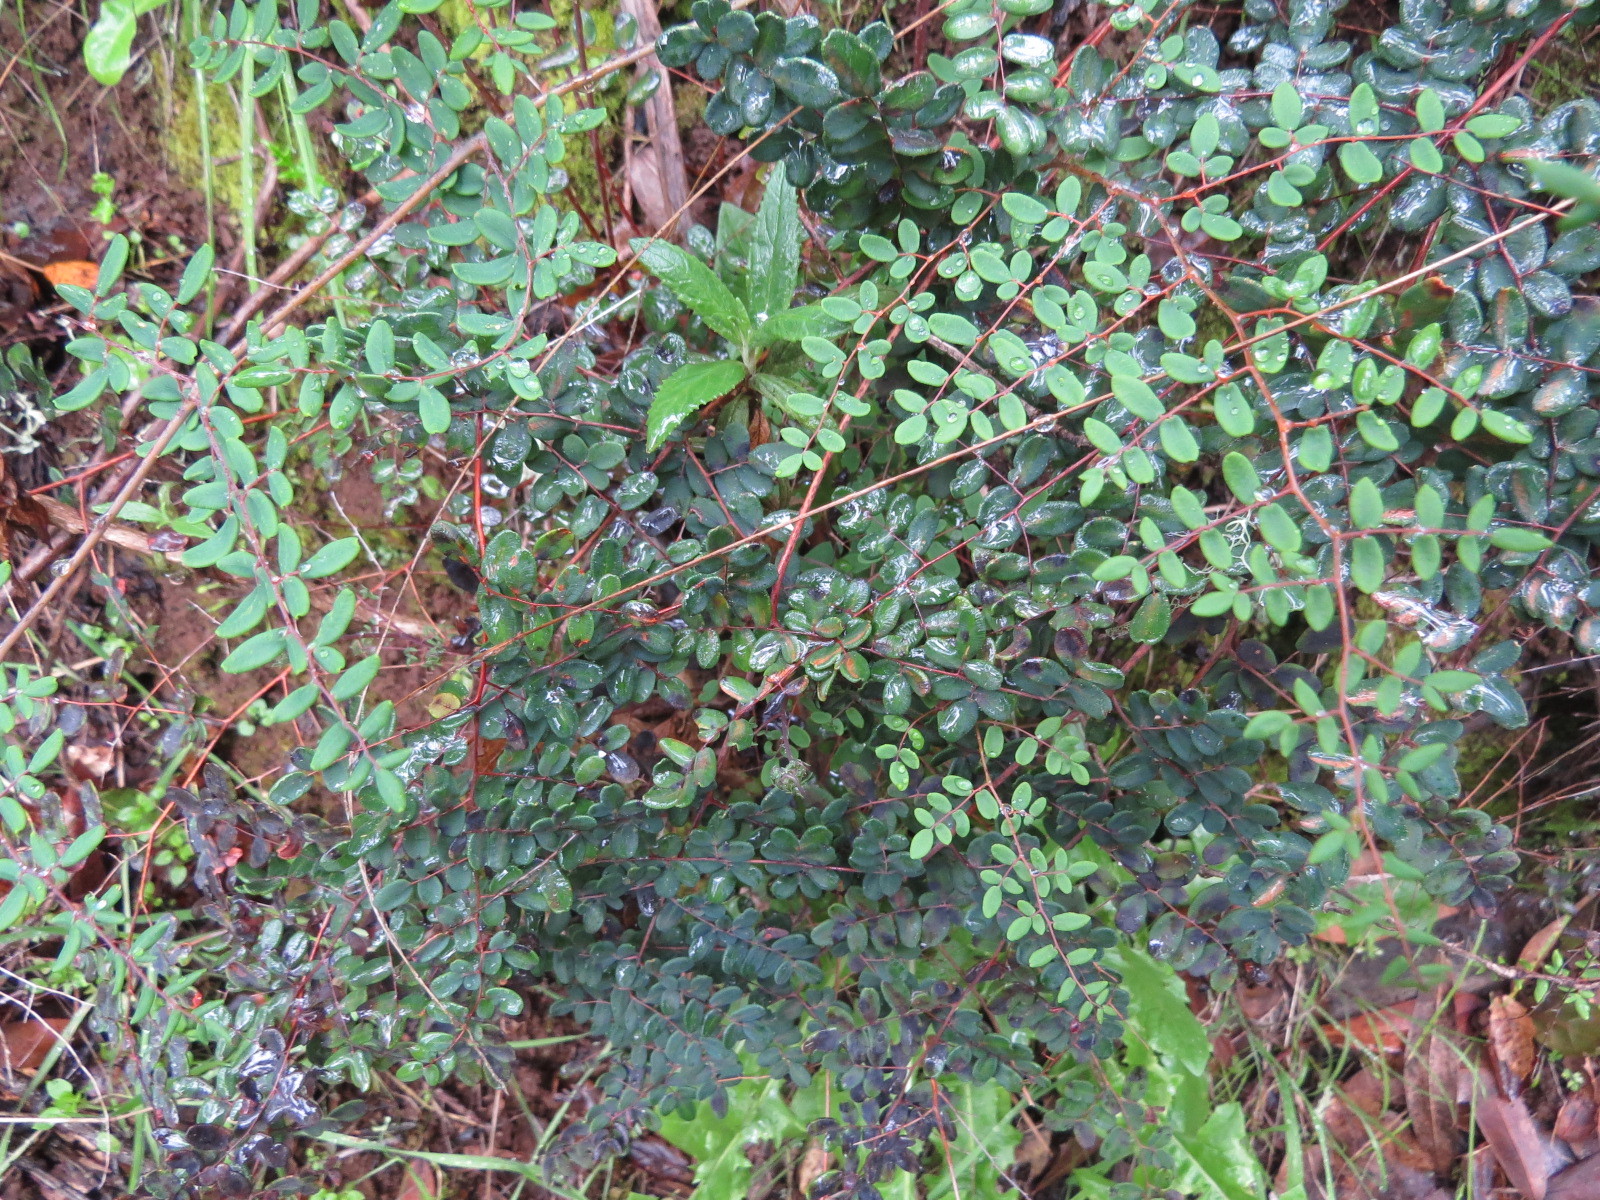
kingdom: Plantae
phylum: Tracheophyta
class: Polypodiopsida
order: Polypodiales
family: Pteridaceae
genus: Pellaea
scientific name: Pellaea andromedifolia
